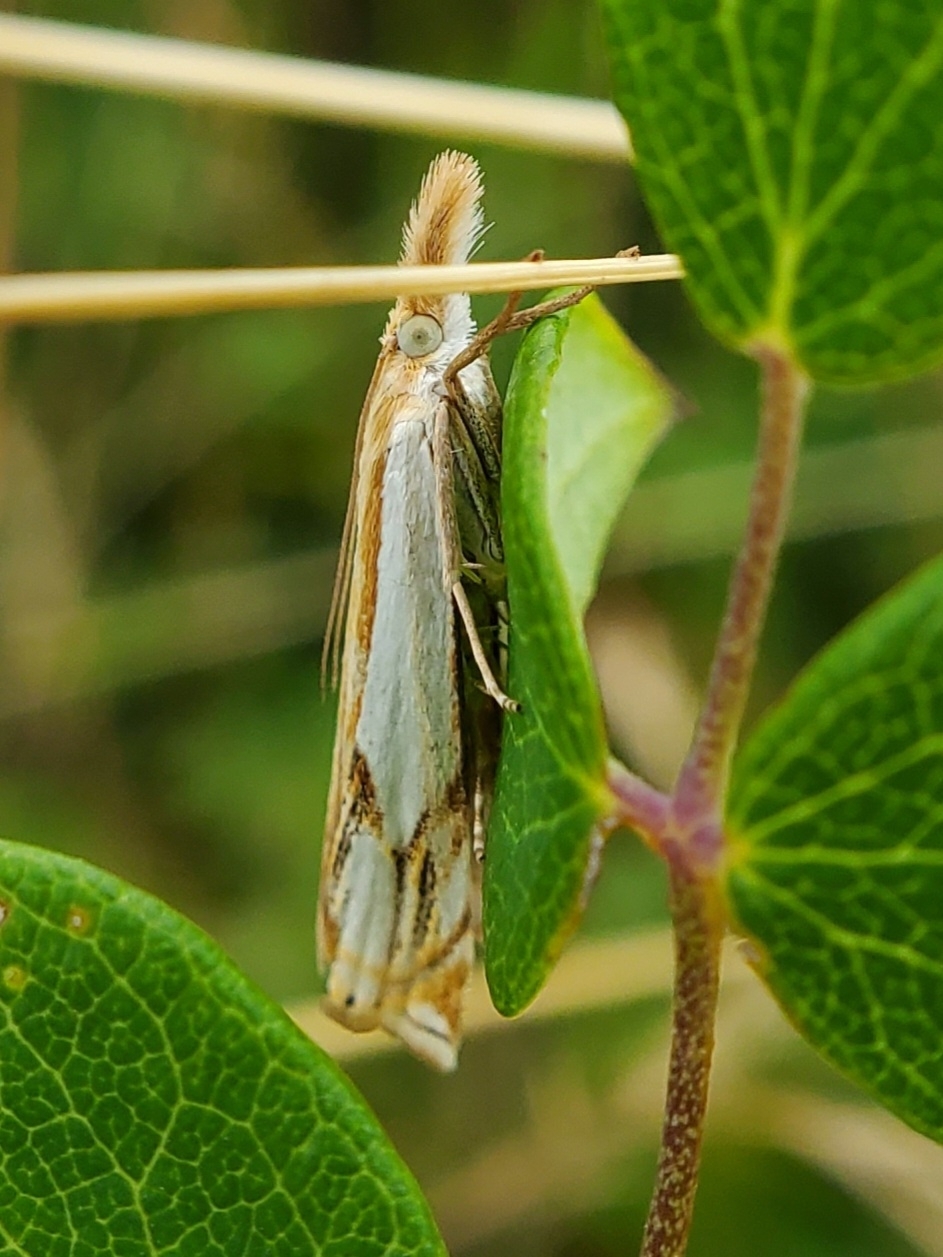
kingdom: Animalia
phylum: Arthropoda
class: Insecta
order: Lepidoptera
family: Crambidae
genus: Crambus
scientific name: Crambus agitatellus
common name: Double-banded grass-veneer
